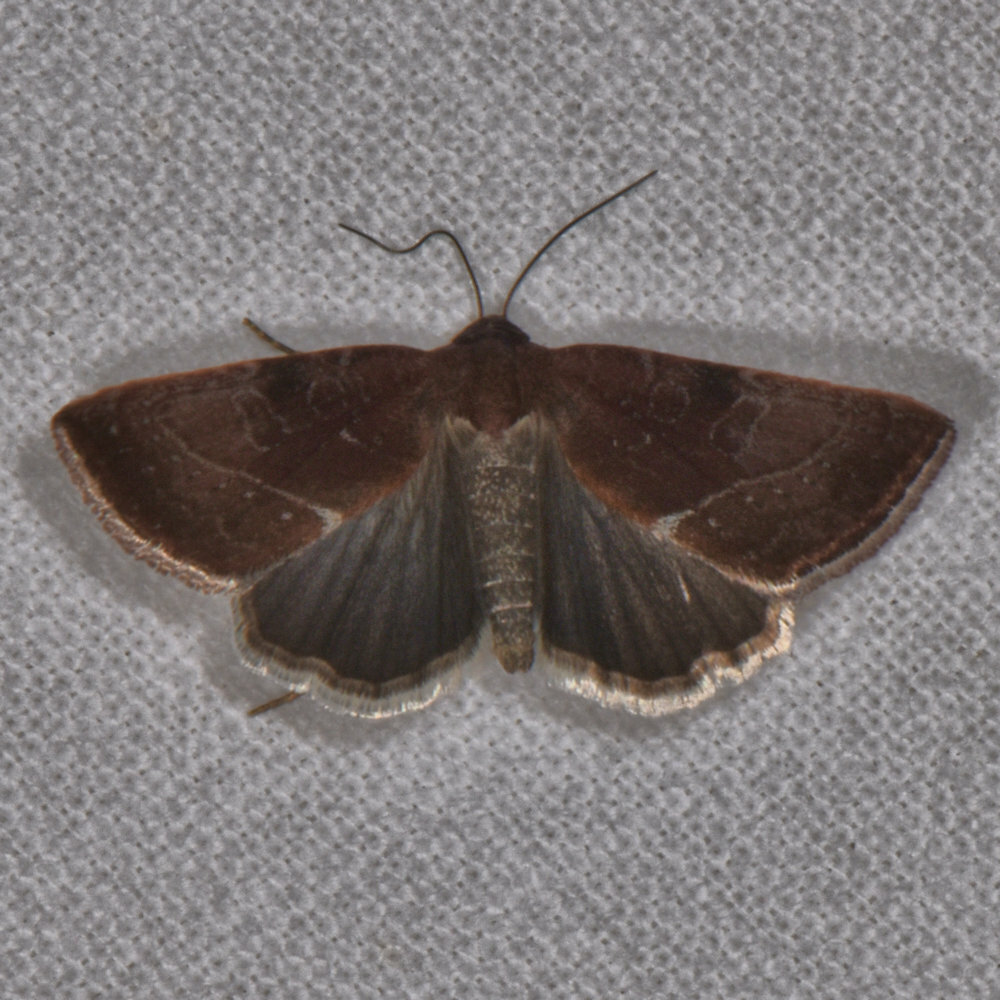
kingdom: Animalia
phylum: Arthropoda
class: Insecta
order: Lepidoptera
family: Noctuidae
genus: Galgula
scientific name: Galgula partita
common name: Wedgeling
